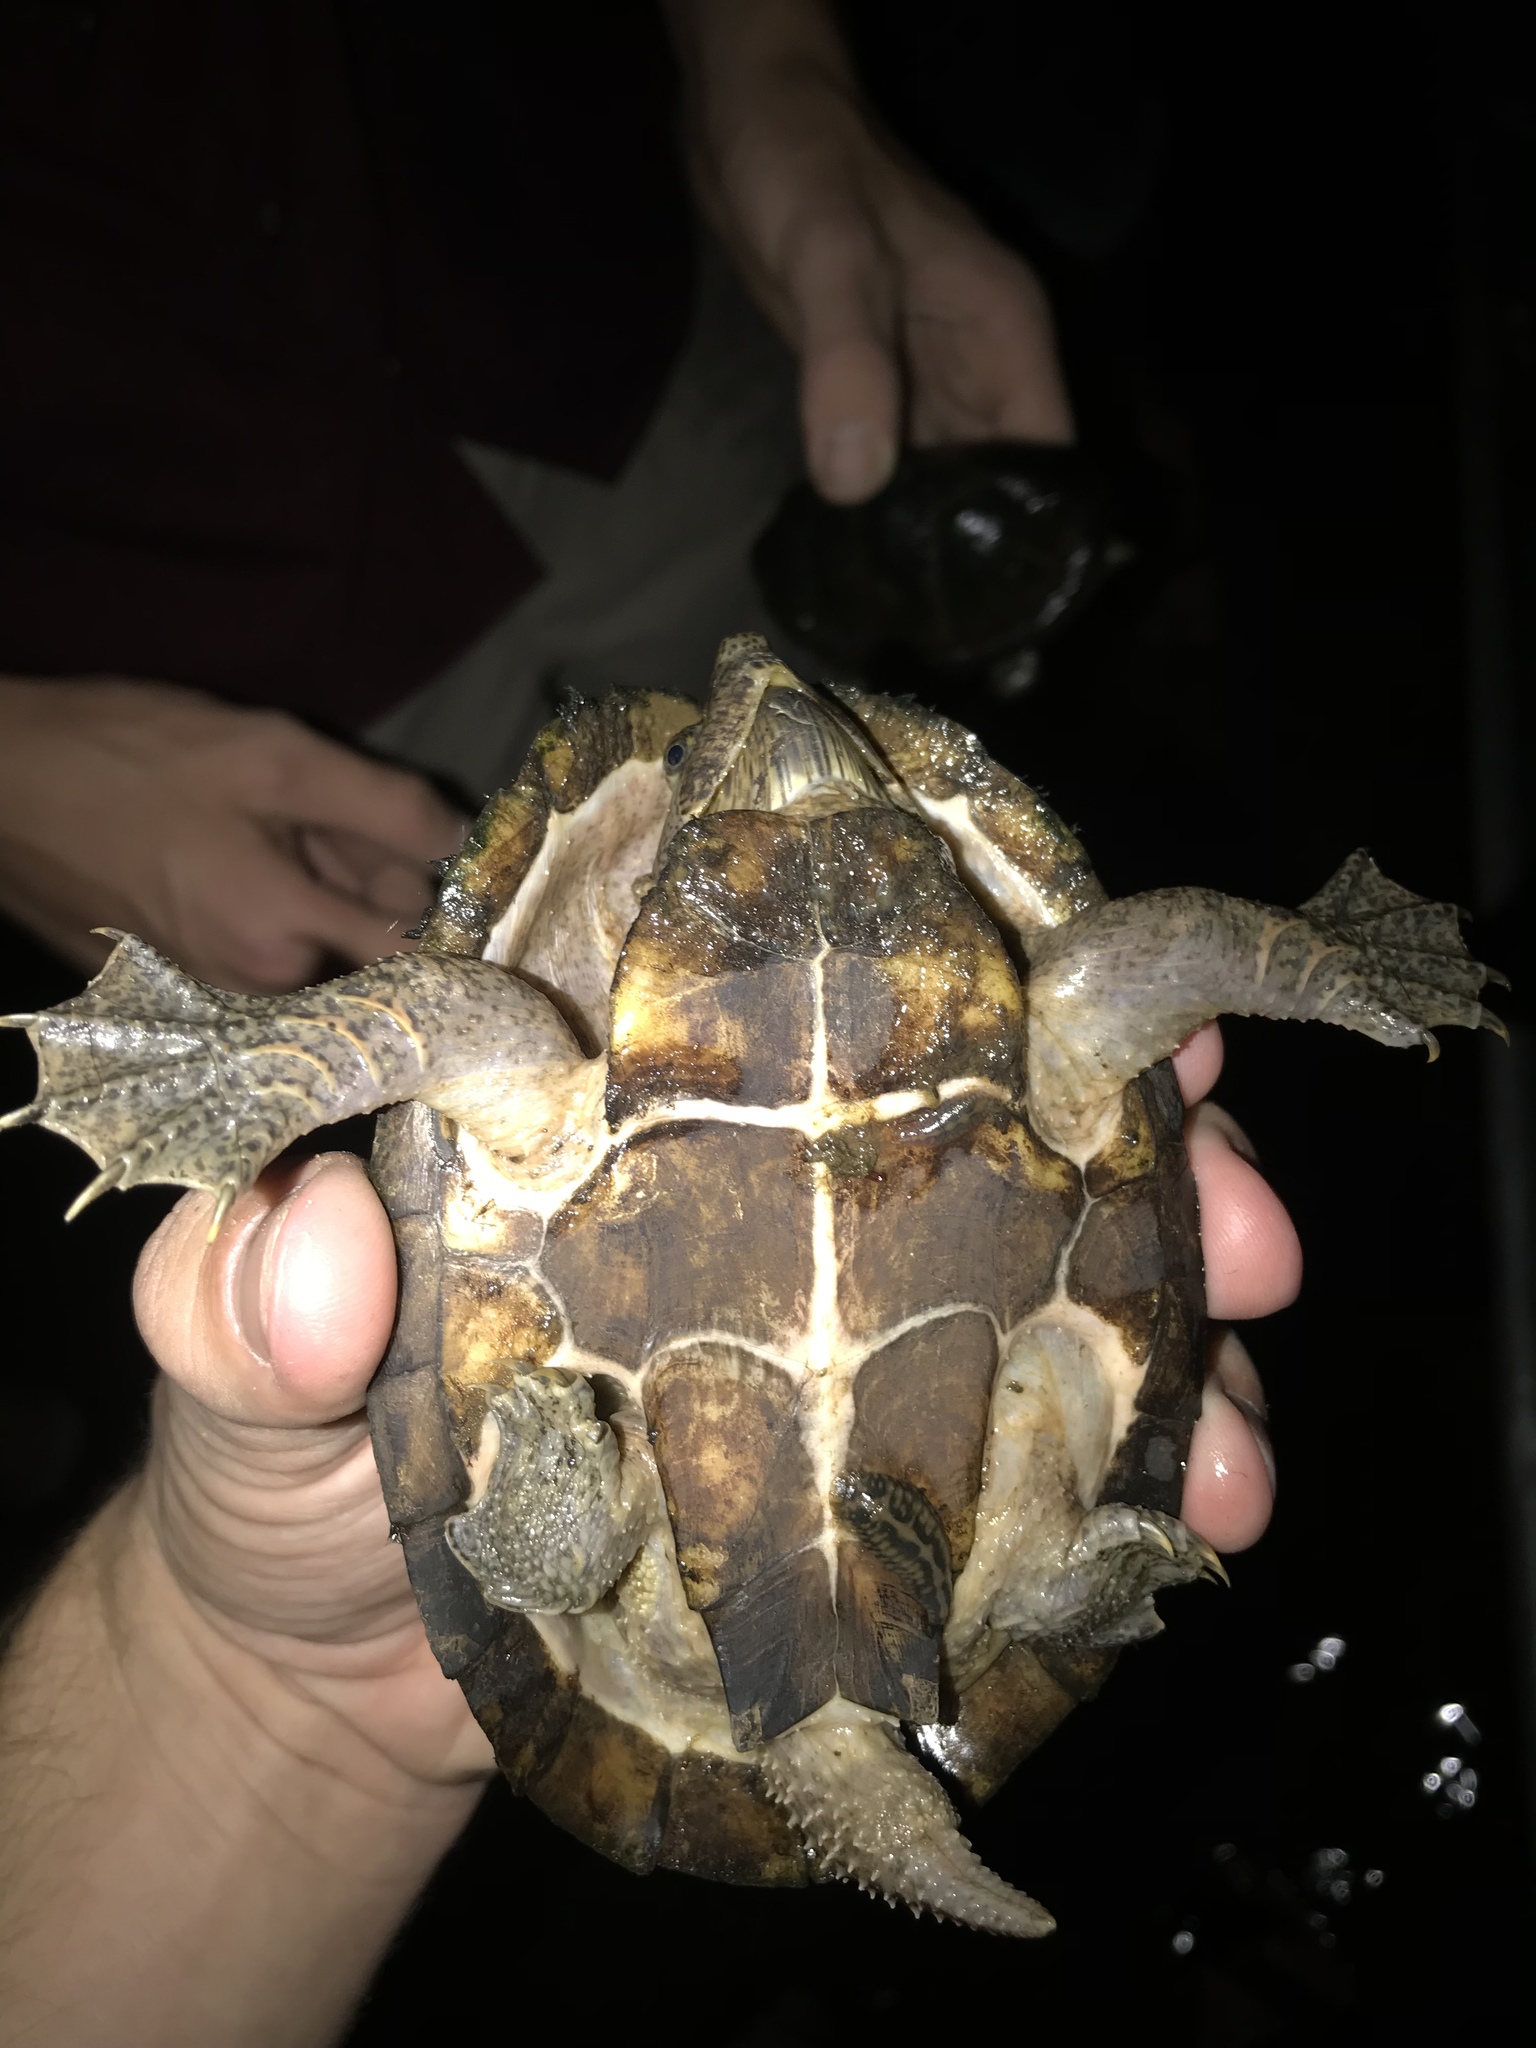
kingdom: Animalia
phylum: Chordata
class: Testudines
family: Kinosternidae
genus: Sternotherus
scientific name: Sternotherus carinatus
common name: Razor-backed musk turtle
